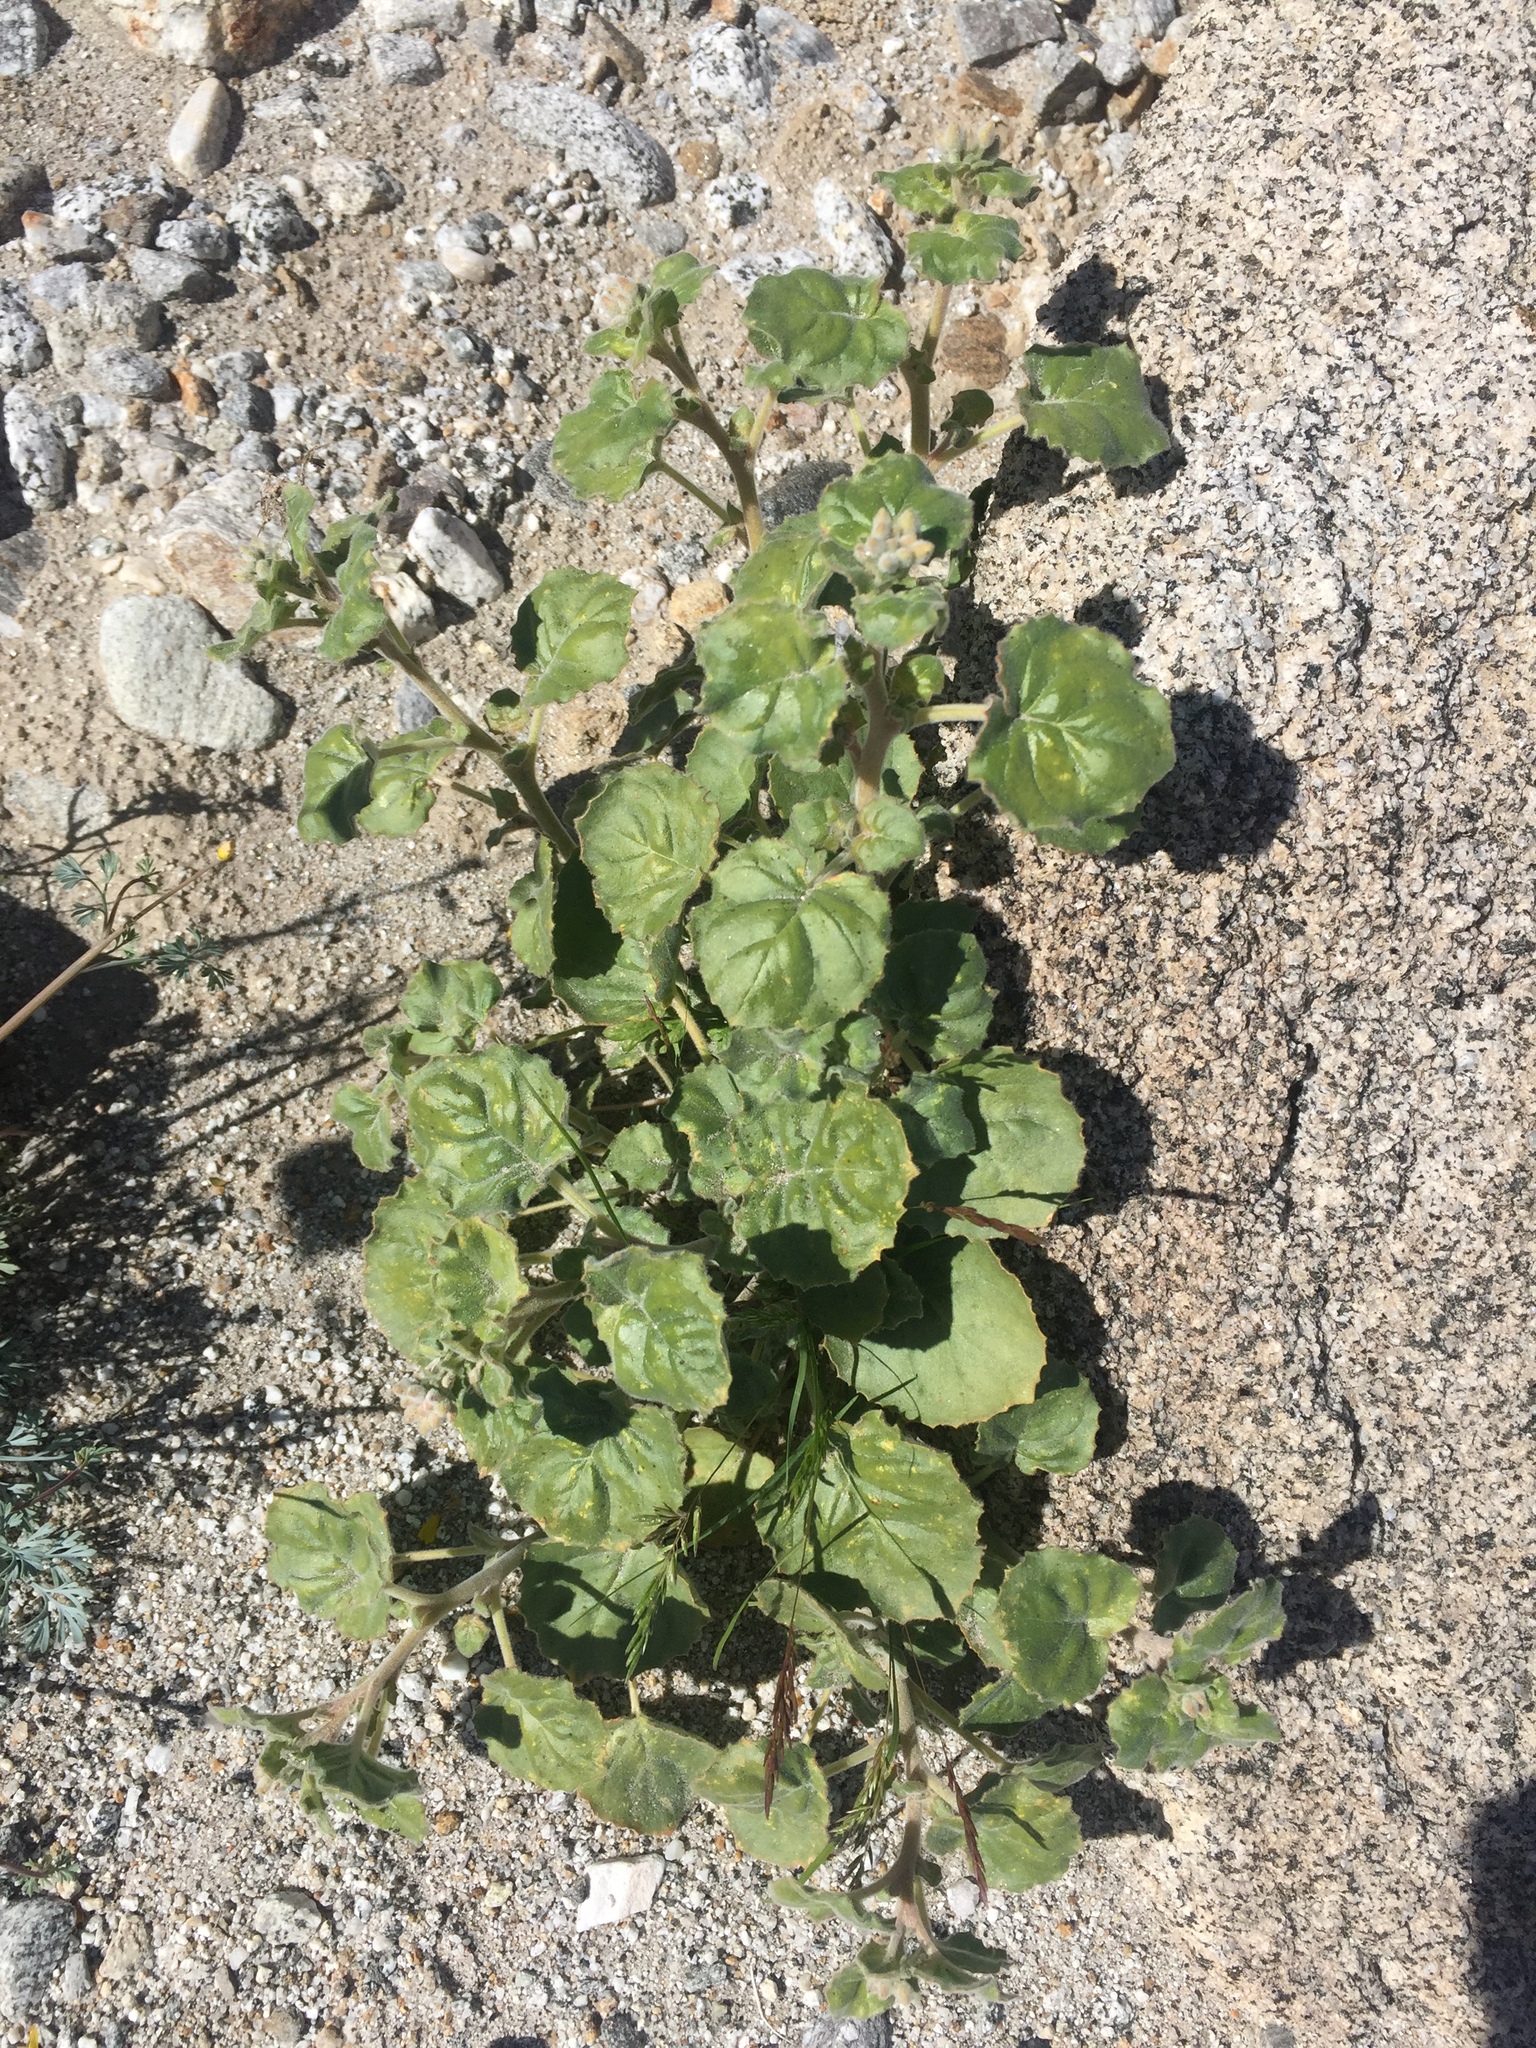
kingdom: Plantae
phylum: Tracheophyta
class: Magnoliopsida
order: Myrtales
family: Onagraceae
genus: Chylismia
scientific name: Chylismia cardiophylla
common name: Heartleaf suncup
